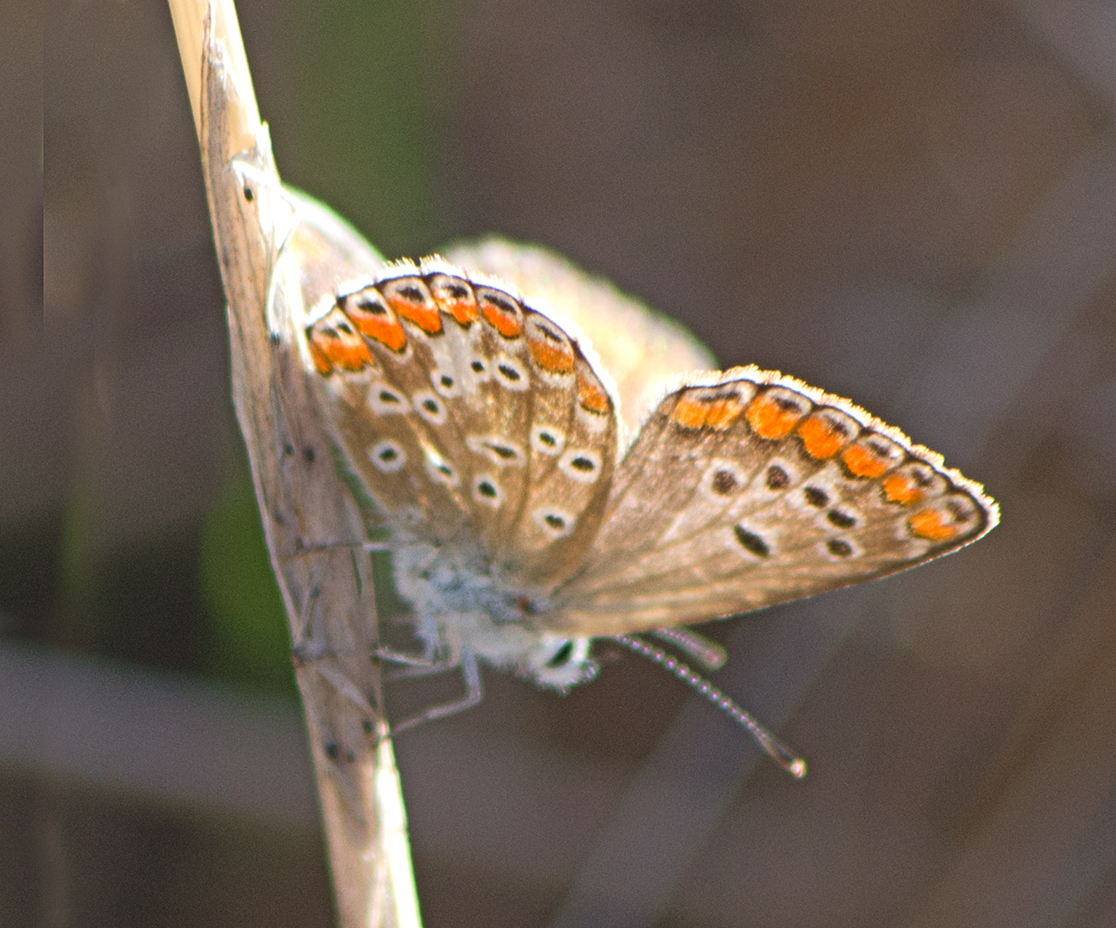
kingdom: Animalia
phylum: Arthropoda
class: Insecta
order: Lepidoptera
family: Lycaenidae
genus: Aricia
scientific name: Aricia agestis
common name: Brown argus
